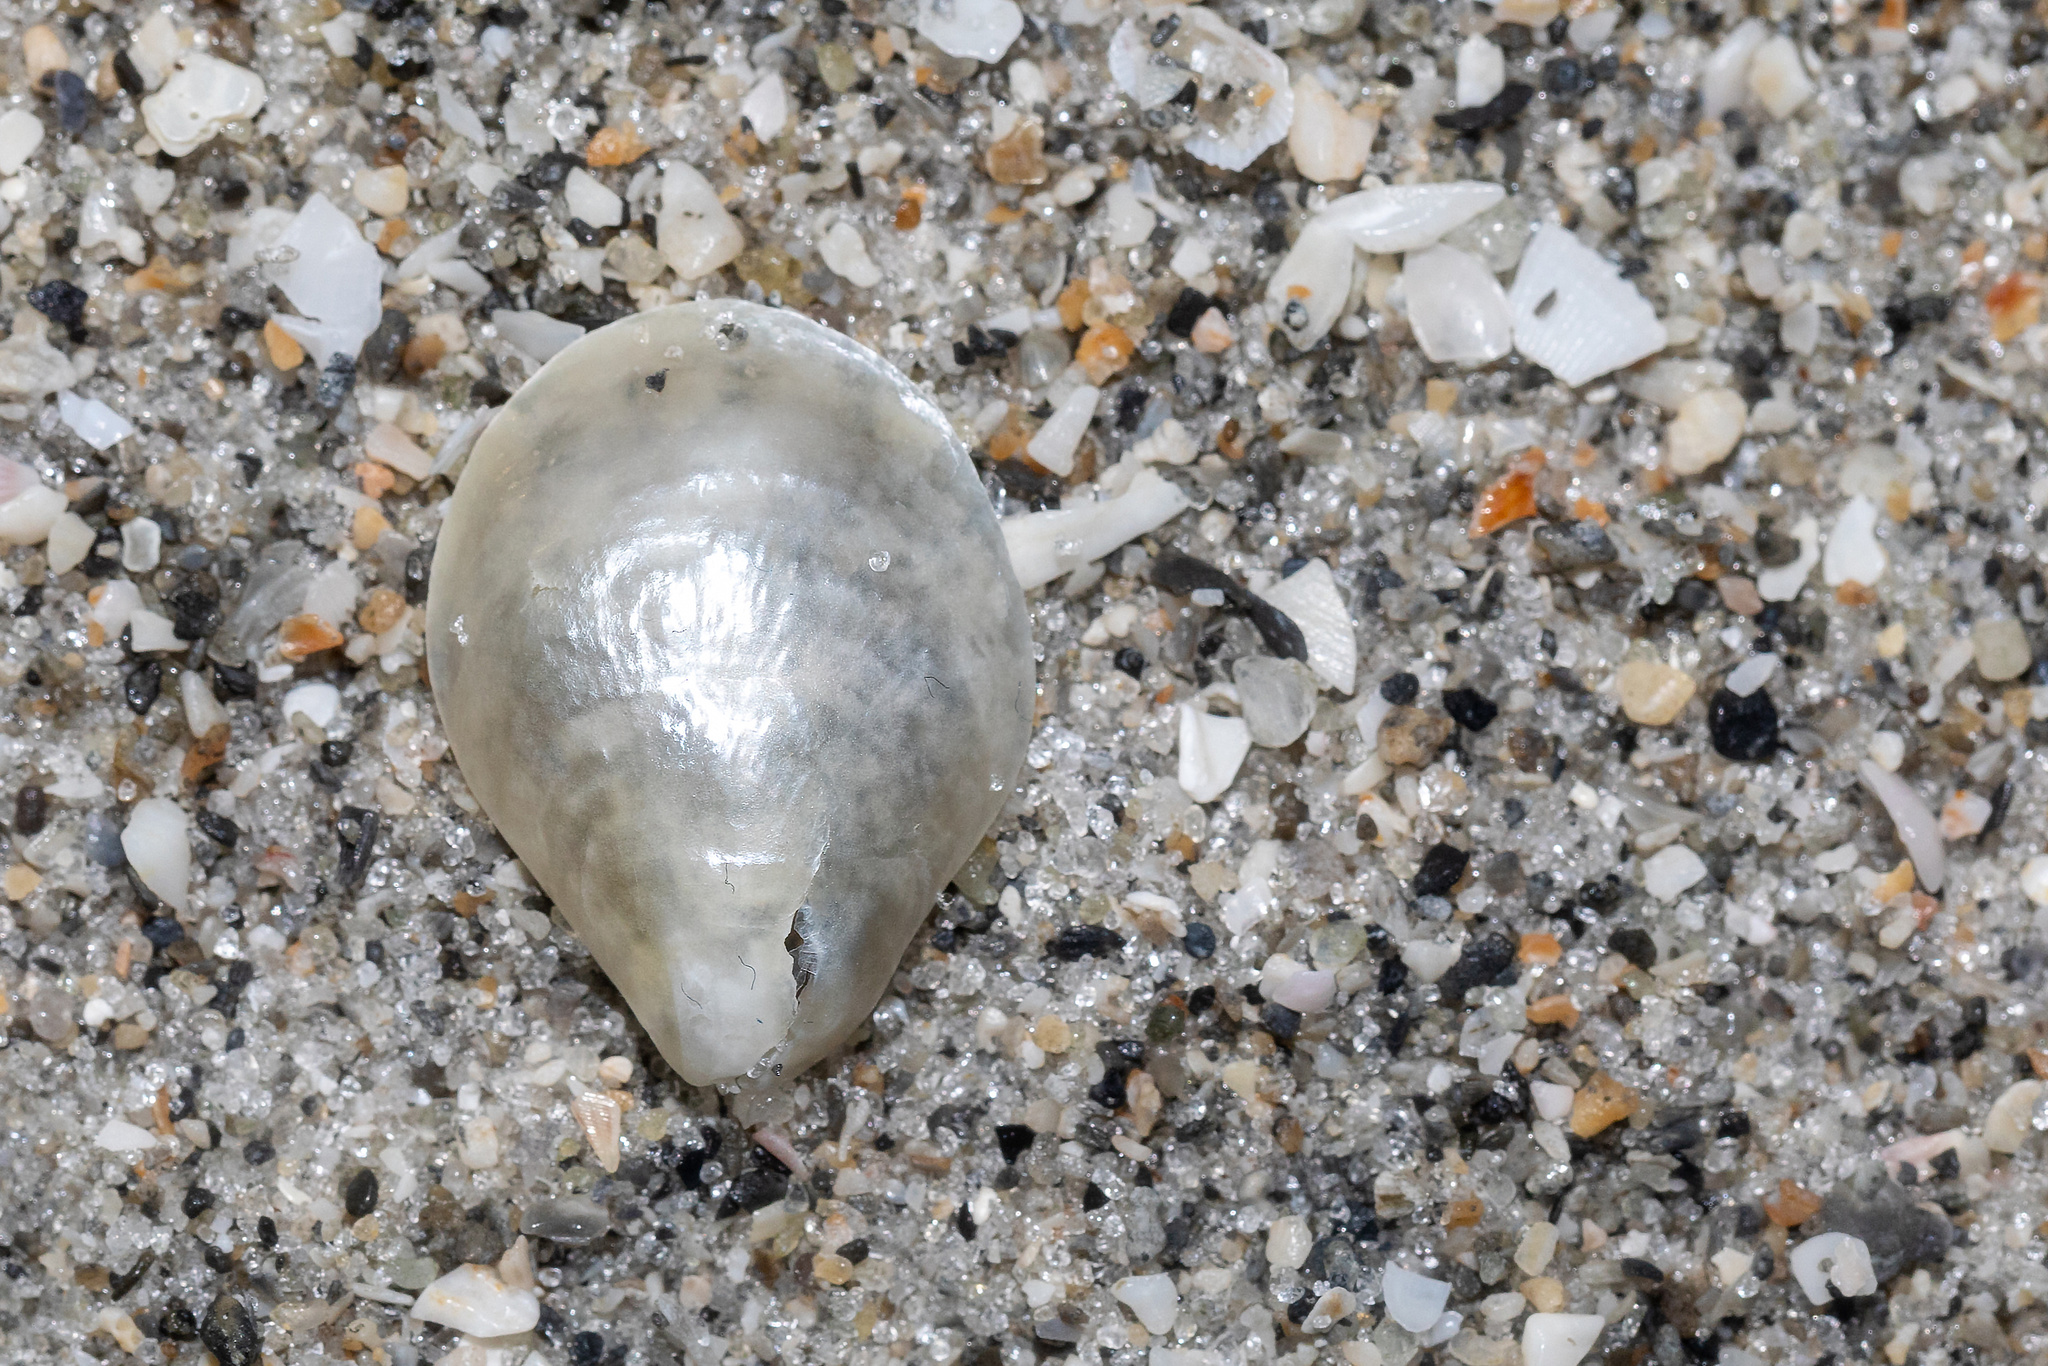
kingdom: Animalia
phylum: Mollusca
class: Bivalvia
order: Pectinida
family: Anomiidae
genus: Anomia
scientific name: Anomia simplex
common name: Common jingle shell
